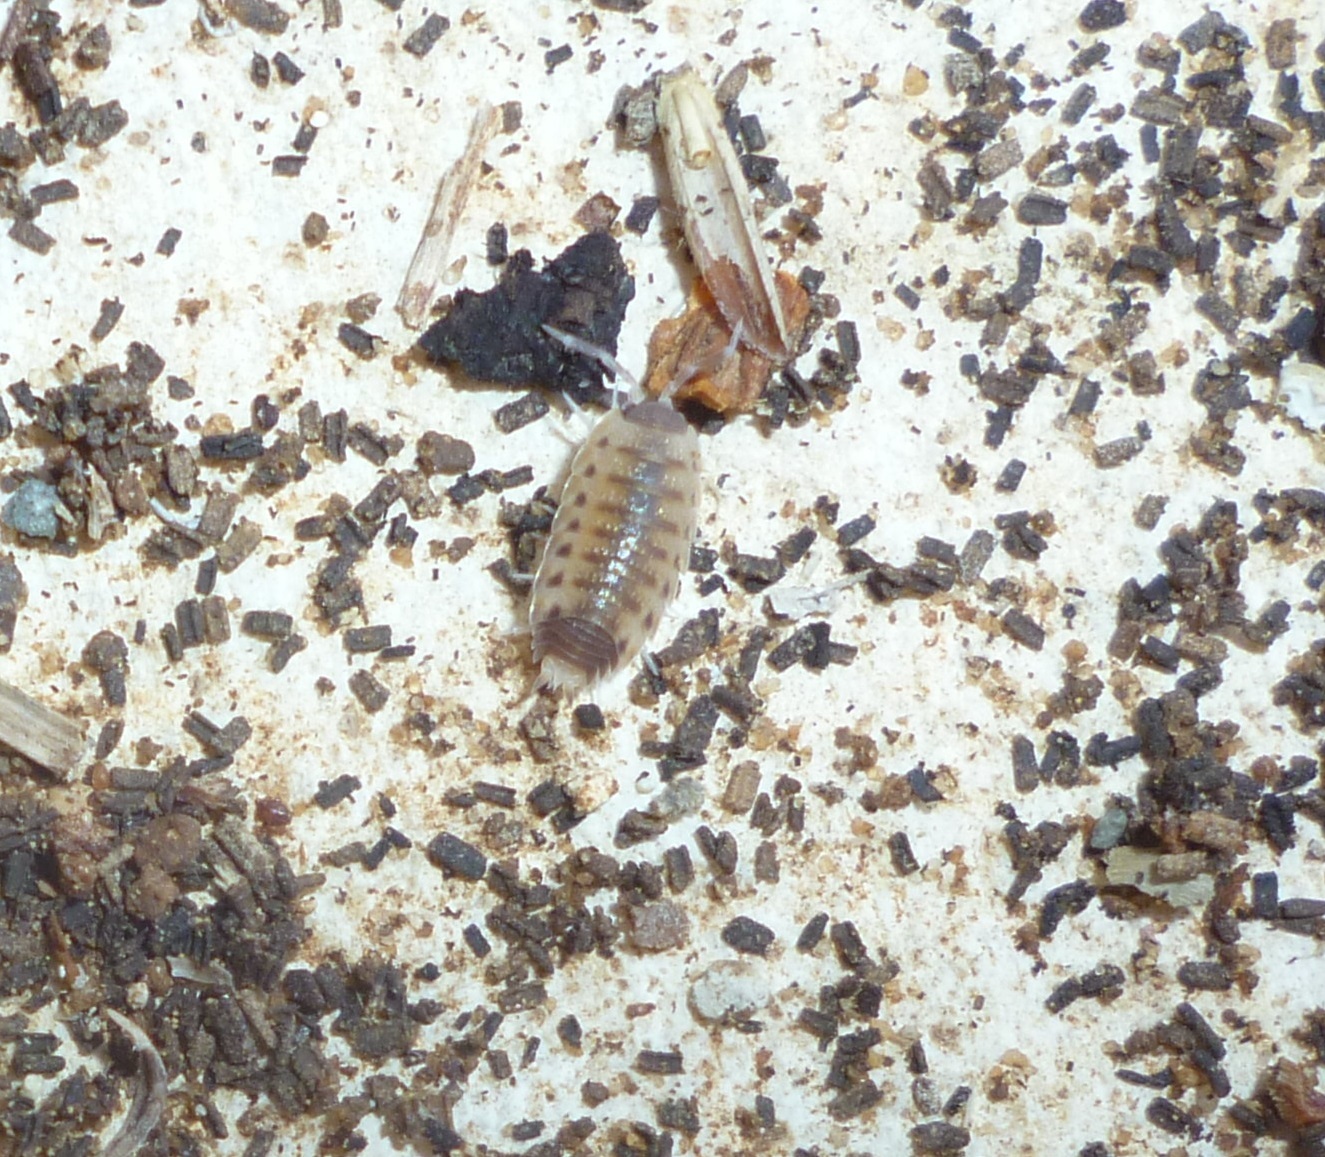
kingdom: Animalia
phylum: Arthropoda
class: Malacostraca
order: Isopoda
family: Porcellionidae
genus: Proporcellio
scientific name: Proporcellio vulcanius
